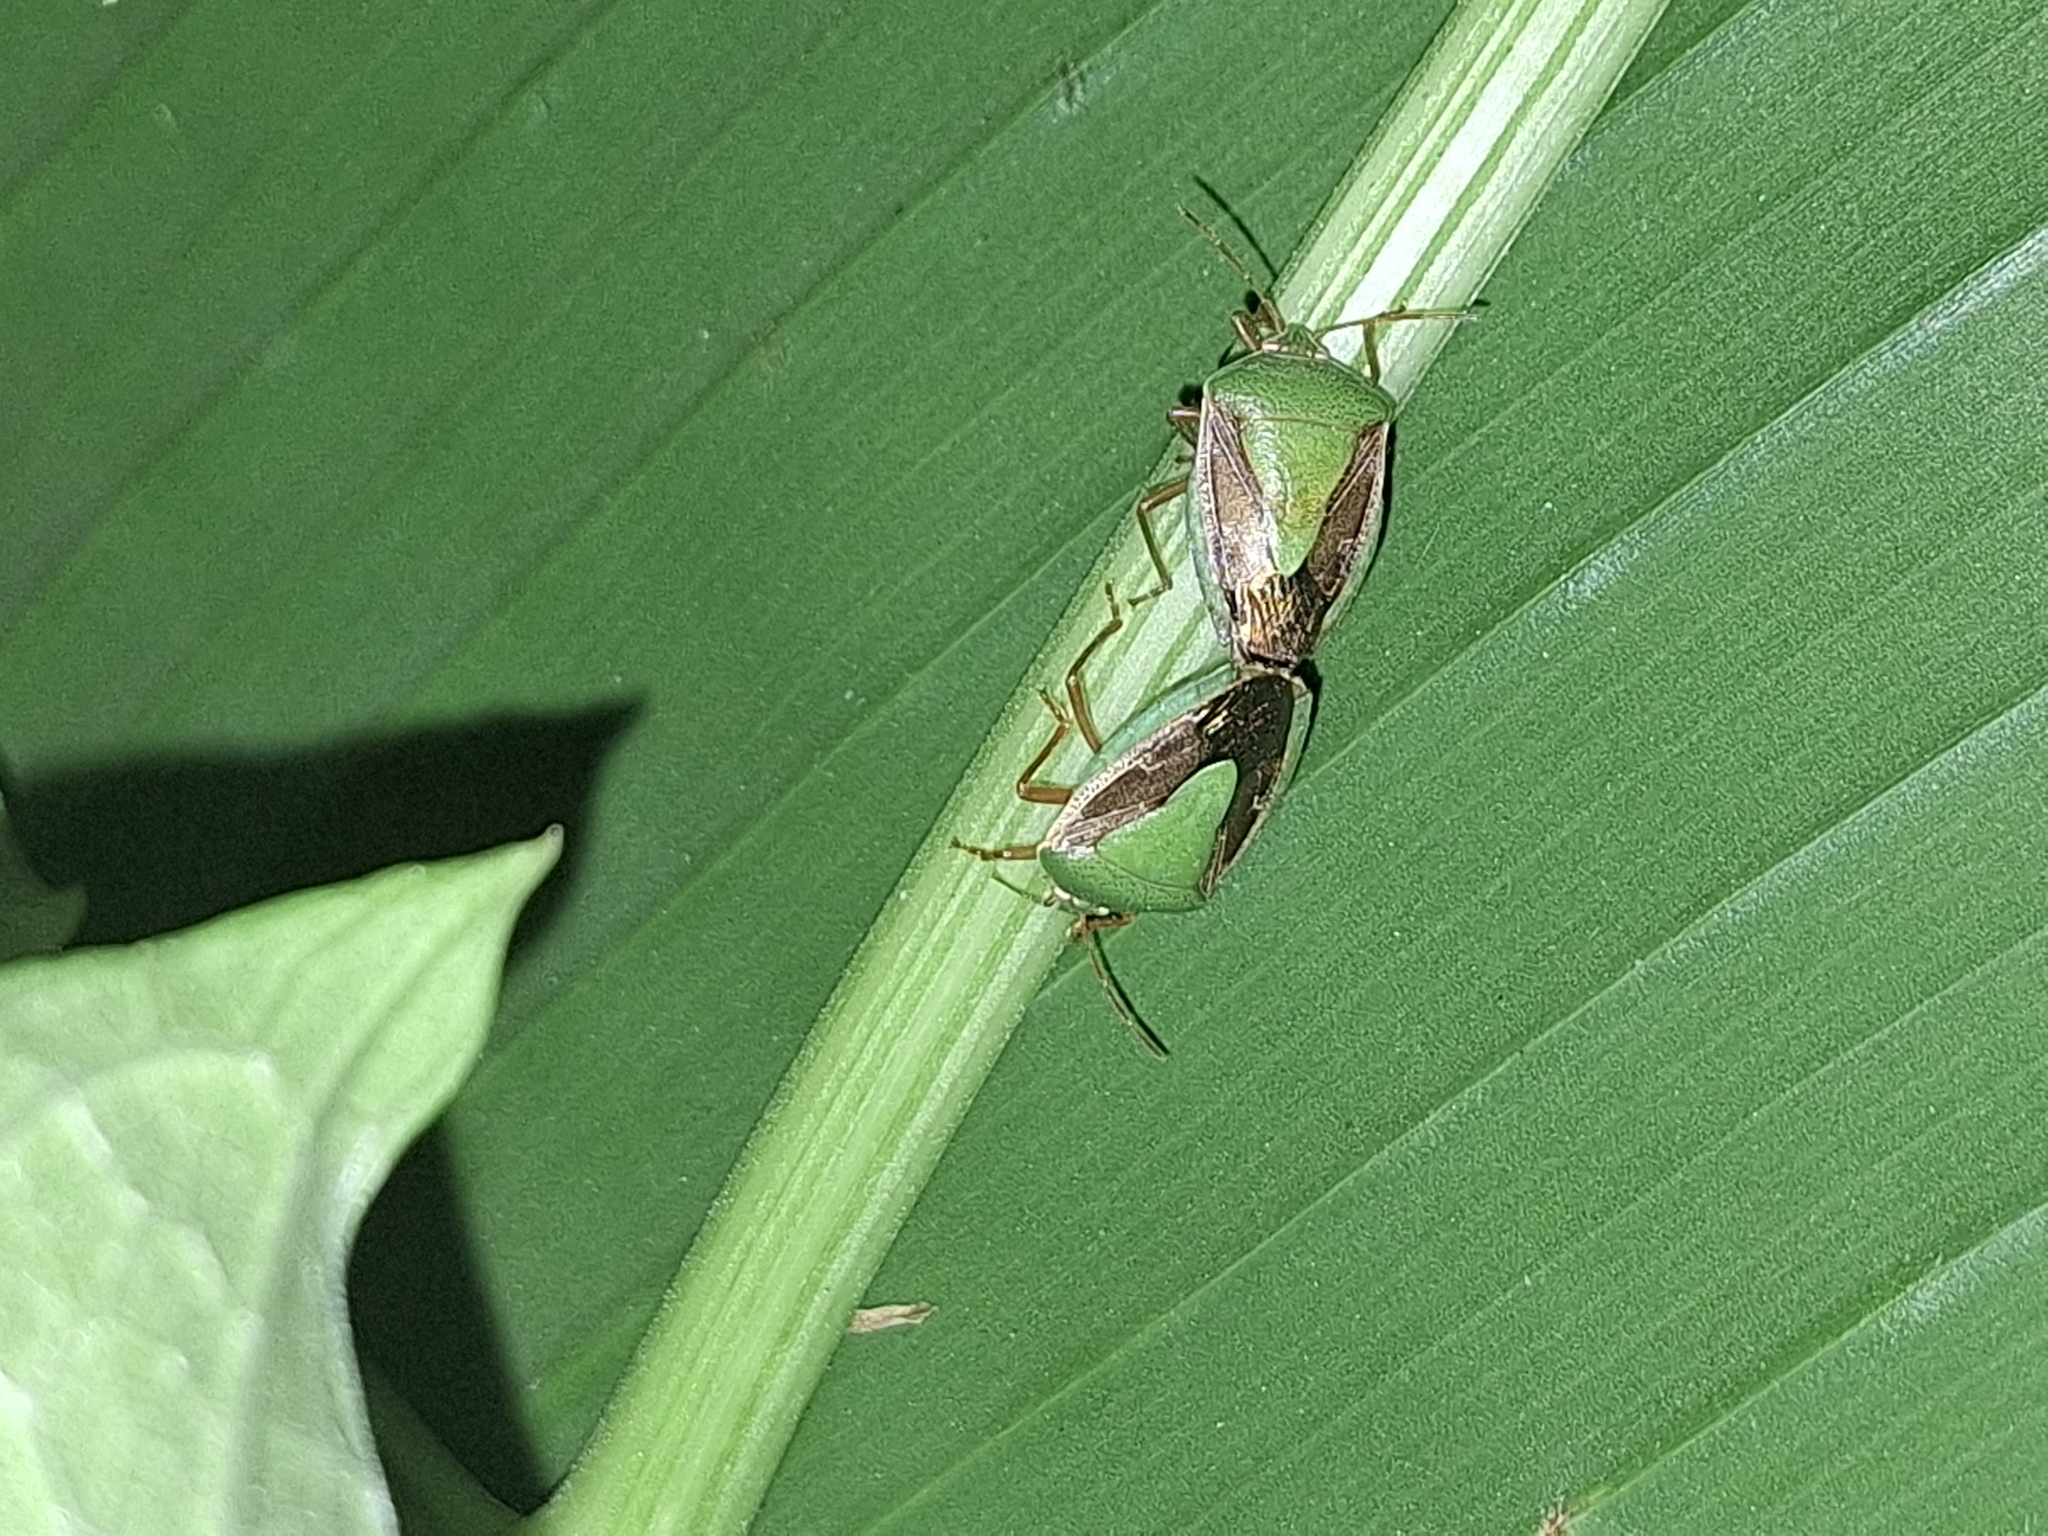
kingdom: Animalia
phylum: Arthropoda
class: Insecta
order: Hemiptera
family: Pentatomidae
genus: Edessa
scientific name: Edessa meditabunda
